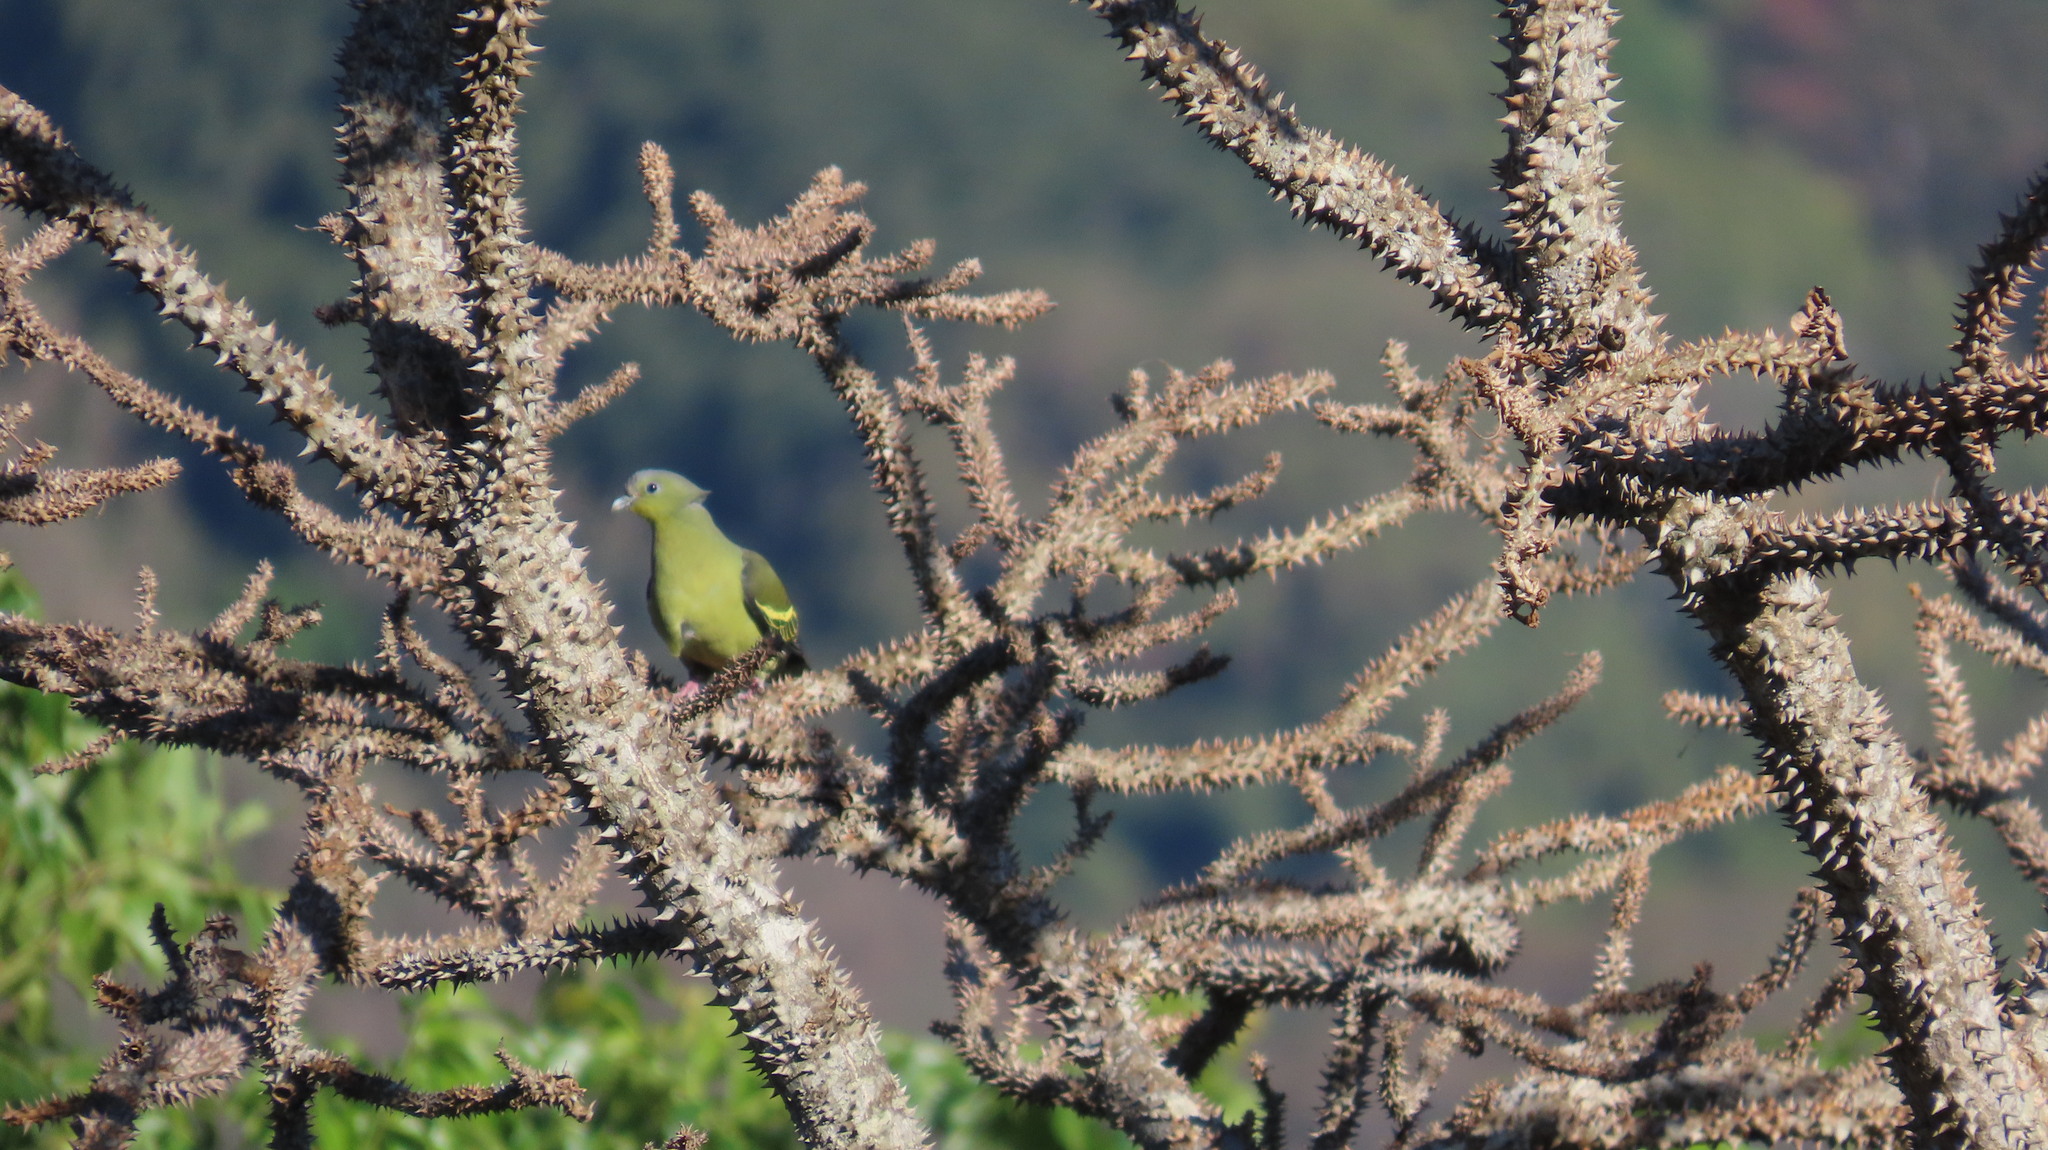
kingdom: Animalia
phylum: Chordata
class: Aves
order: Columbiformes
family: Columbidae
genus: Treron
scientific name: Treron affinis
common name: Grey-fronted green pigeon
